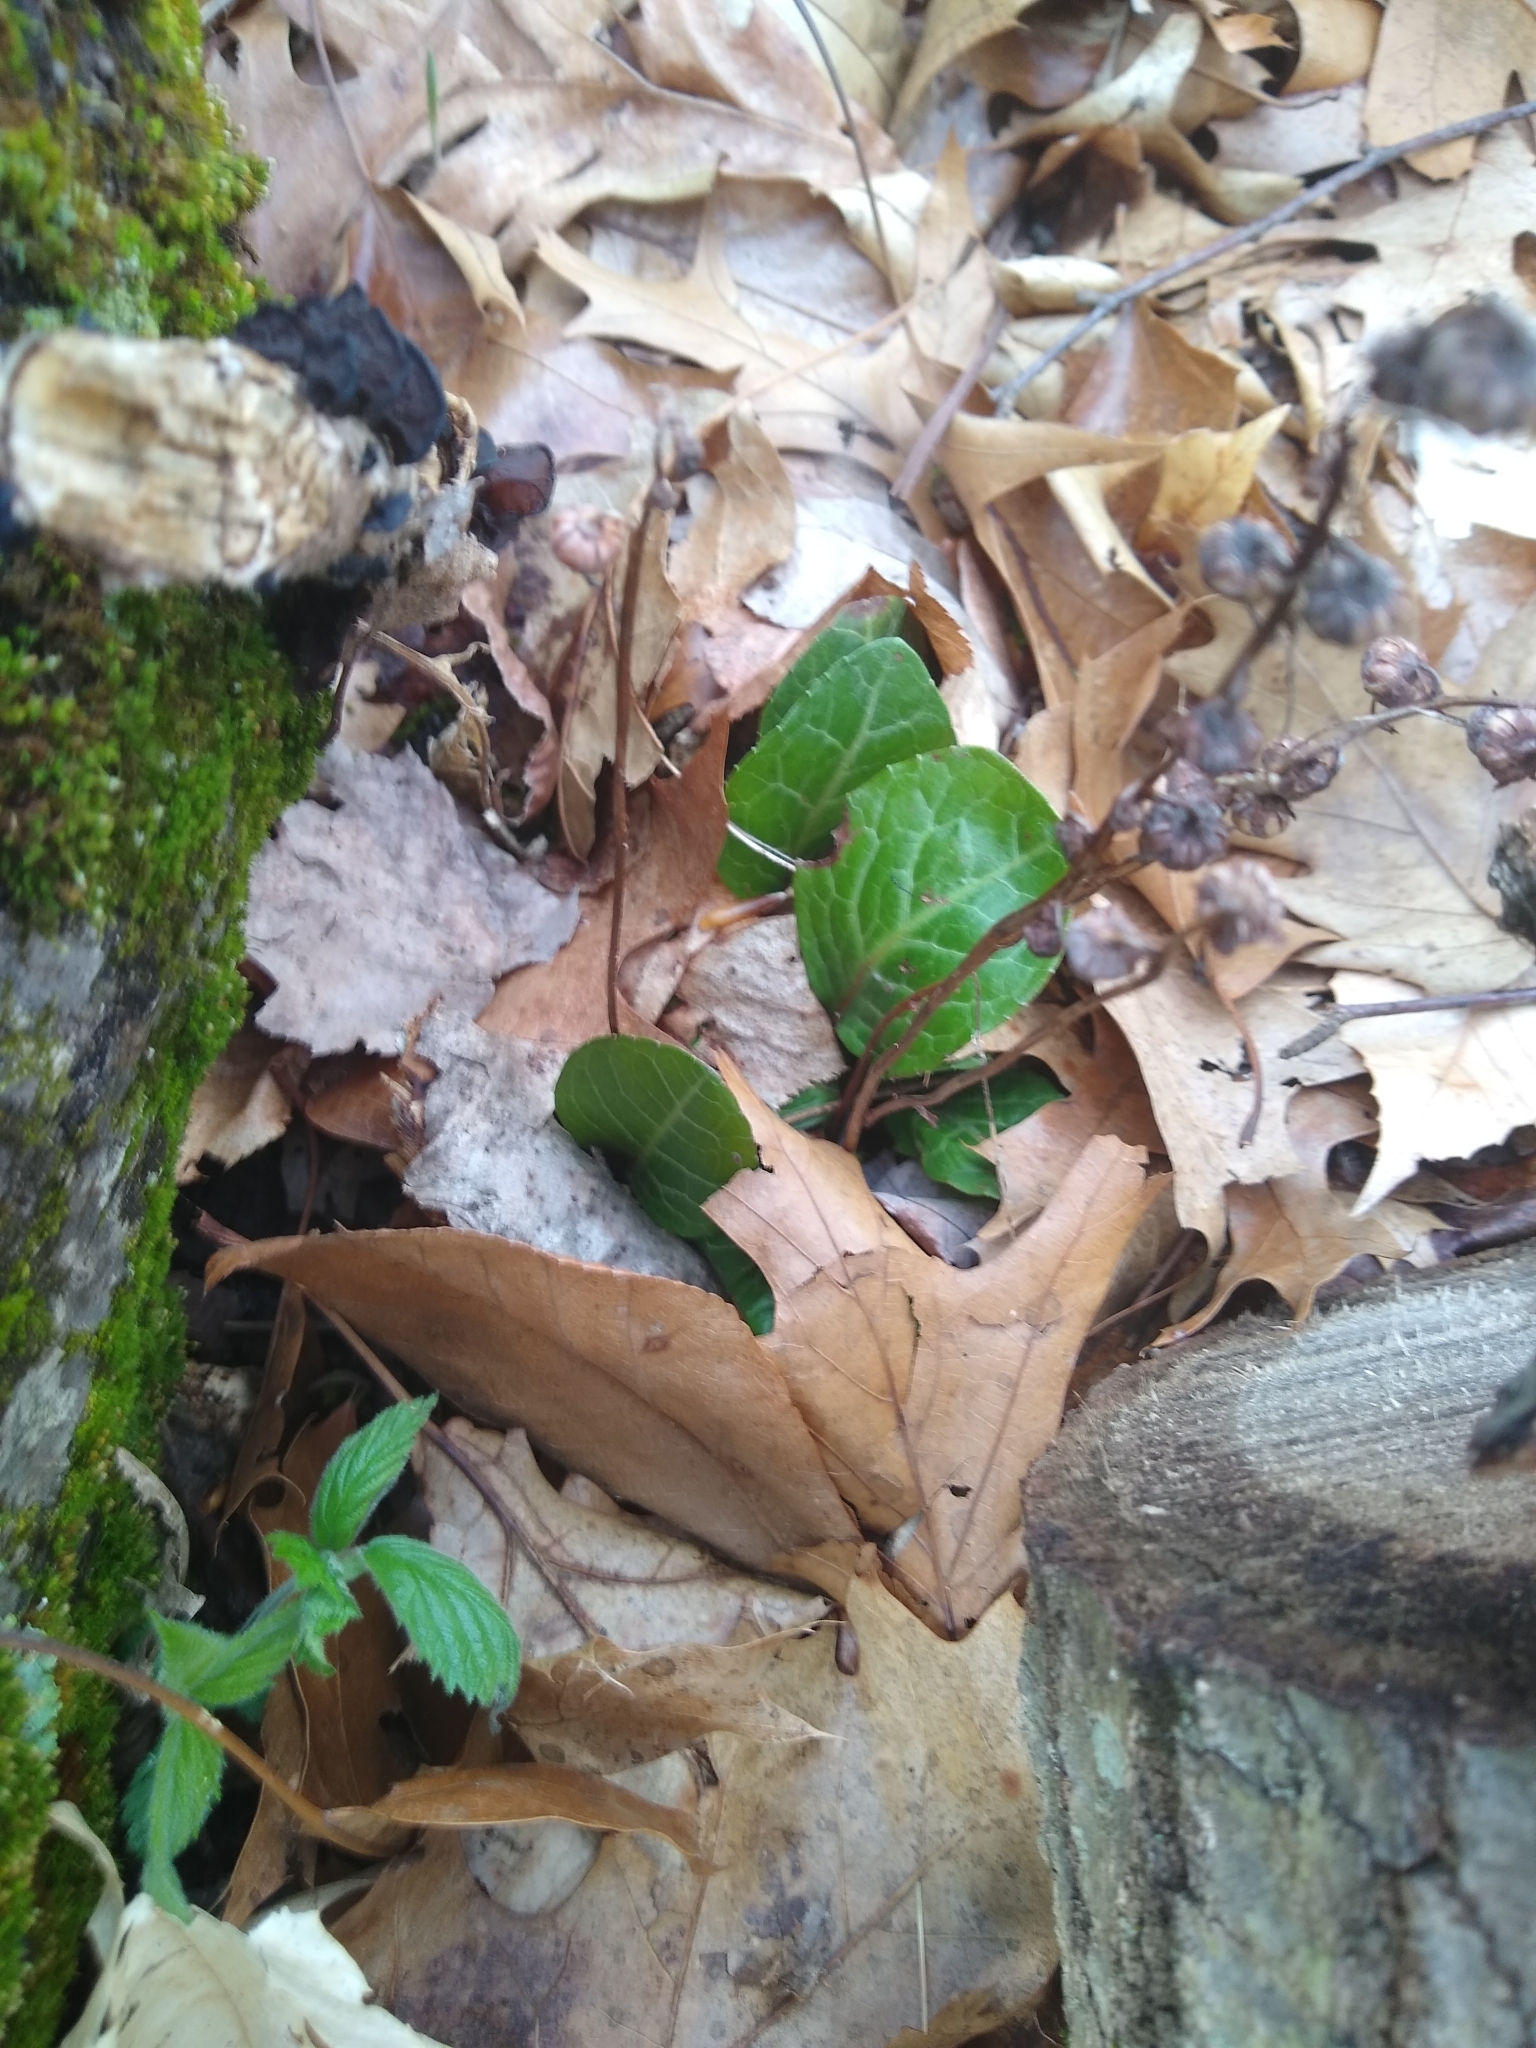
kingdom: Plantae
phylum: Tracheophyta
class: Magnoliopsida
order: Ericales
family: Ericaceae
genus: Pyrola
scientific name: Pyrola americana
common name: American wintergreen
